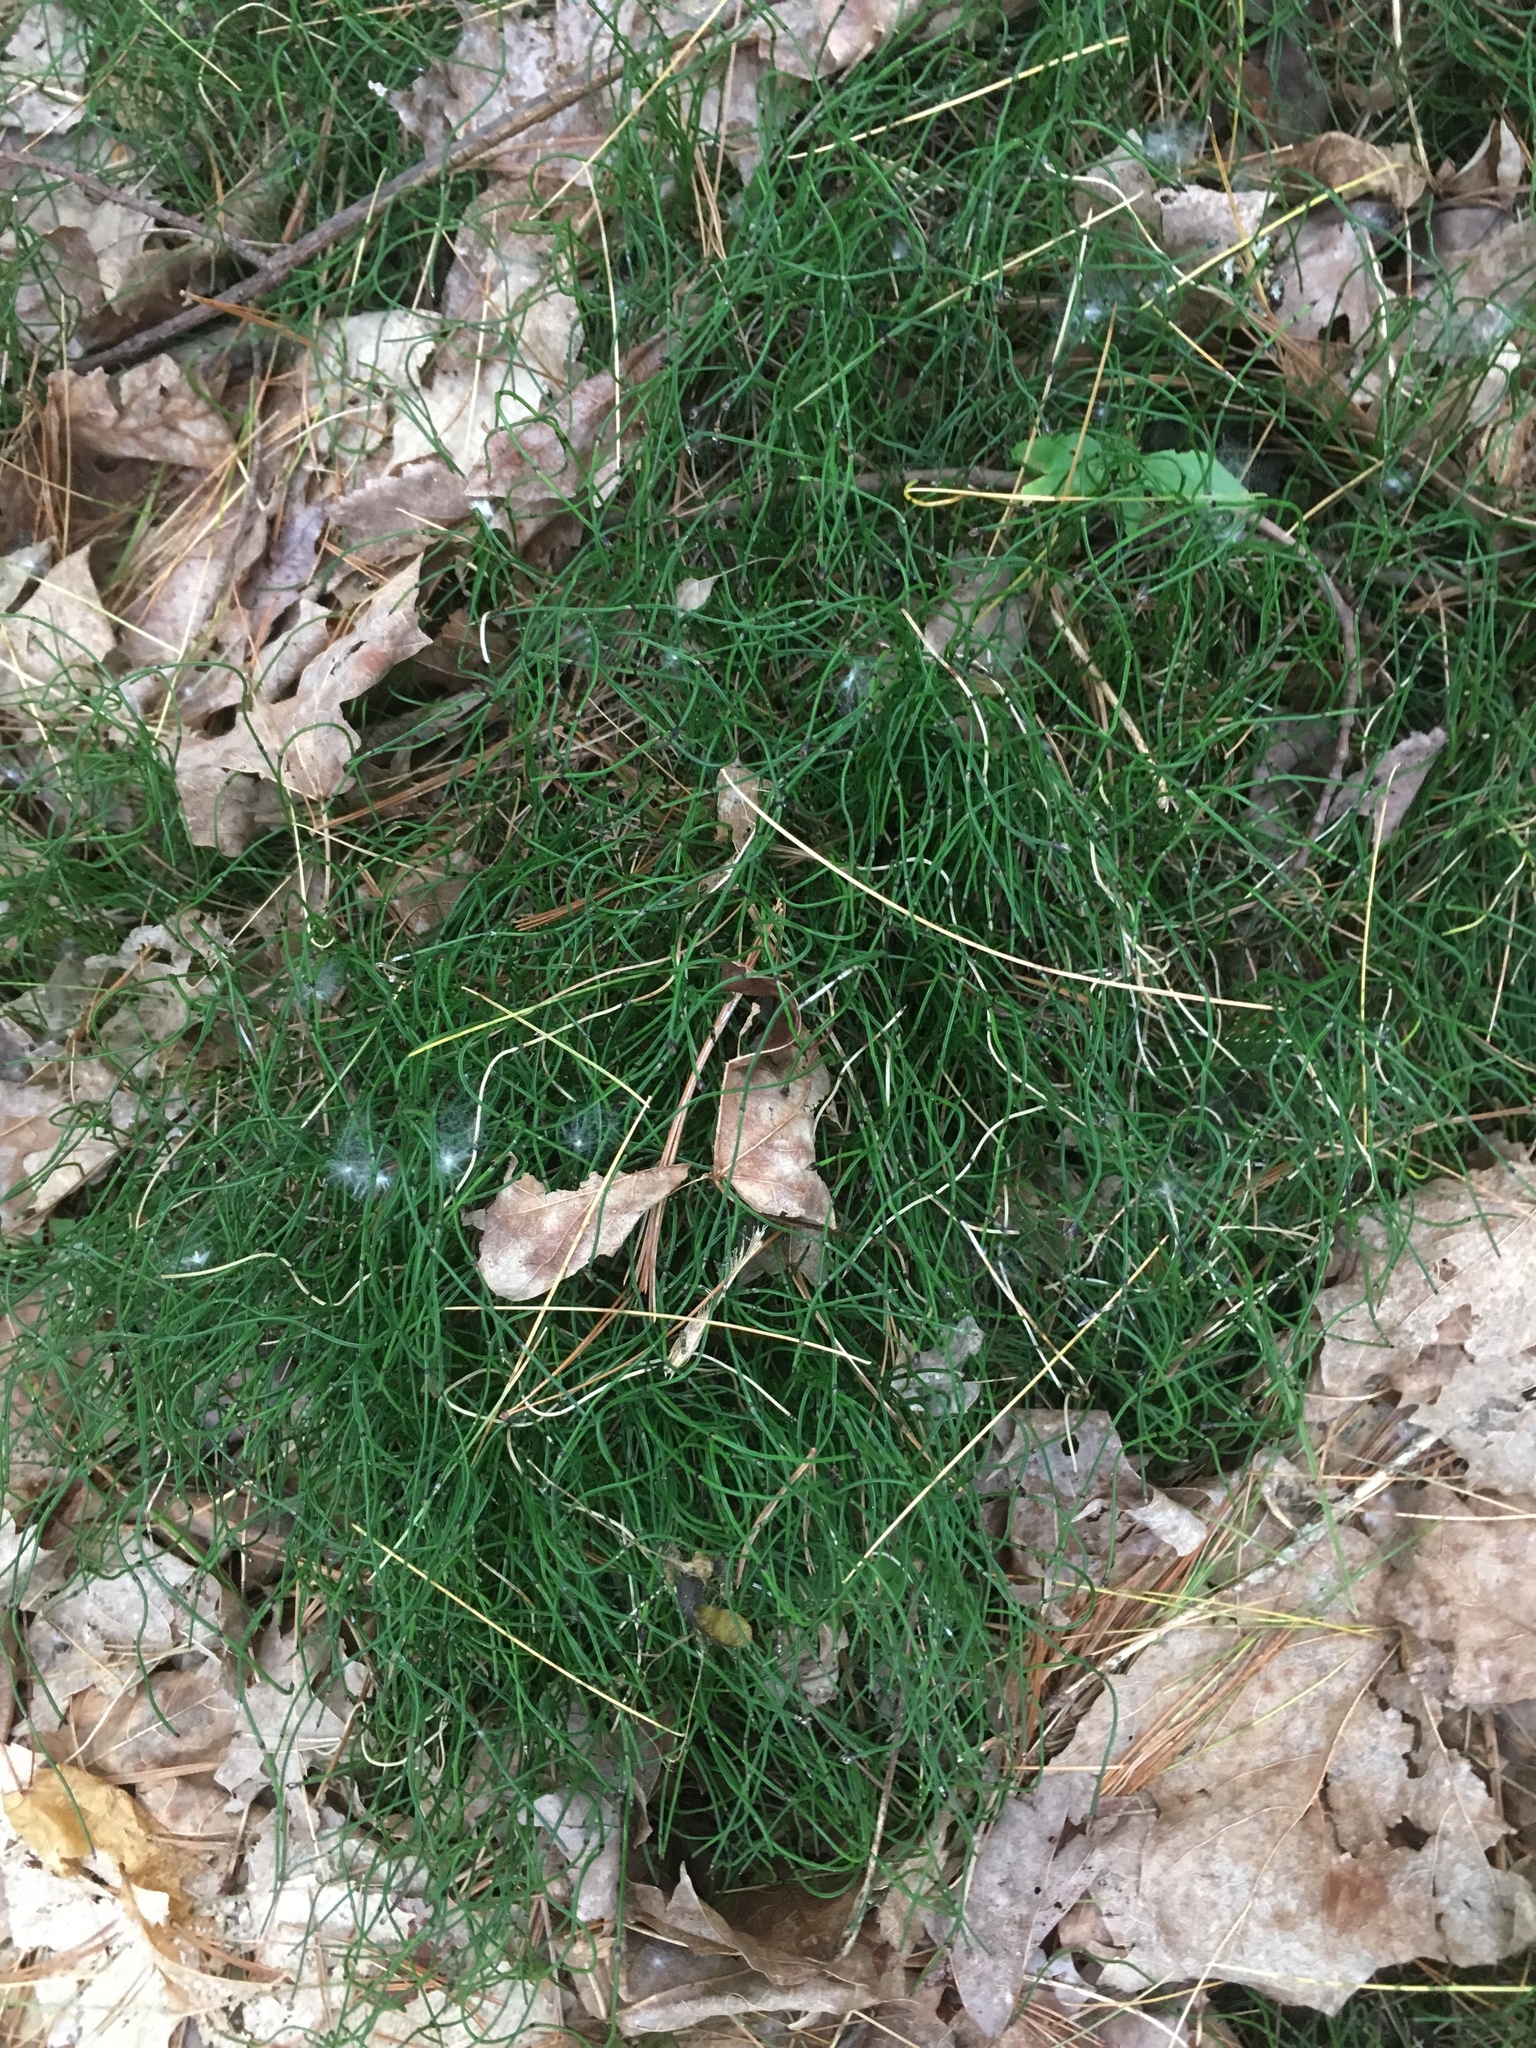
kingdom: Plantae
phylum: Tracheophyta
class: Polypodiopsida
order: Equisetales
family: Equisetaceae
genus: Equisetum
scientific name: Equisetum scirpoides
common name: Delicate horsetail
